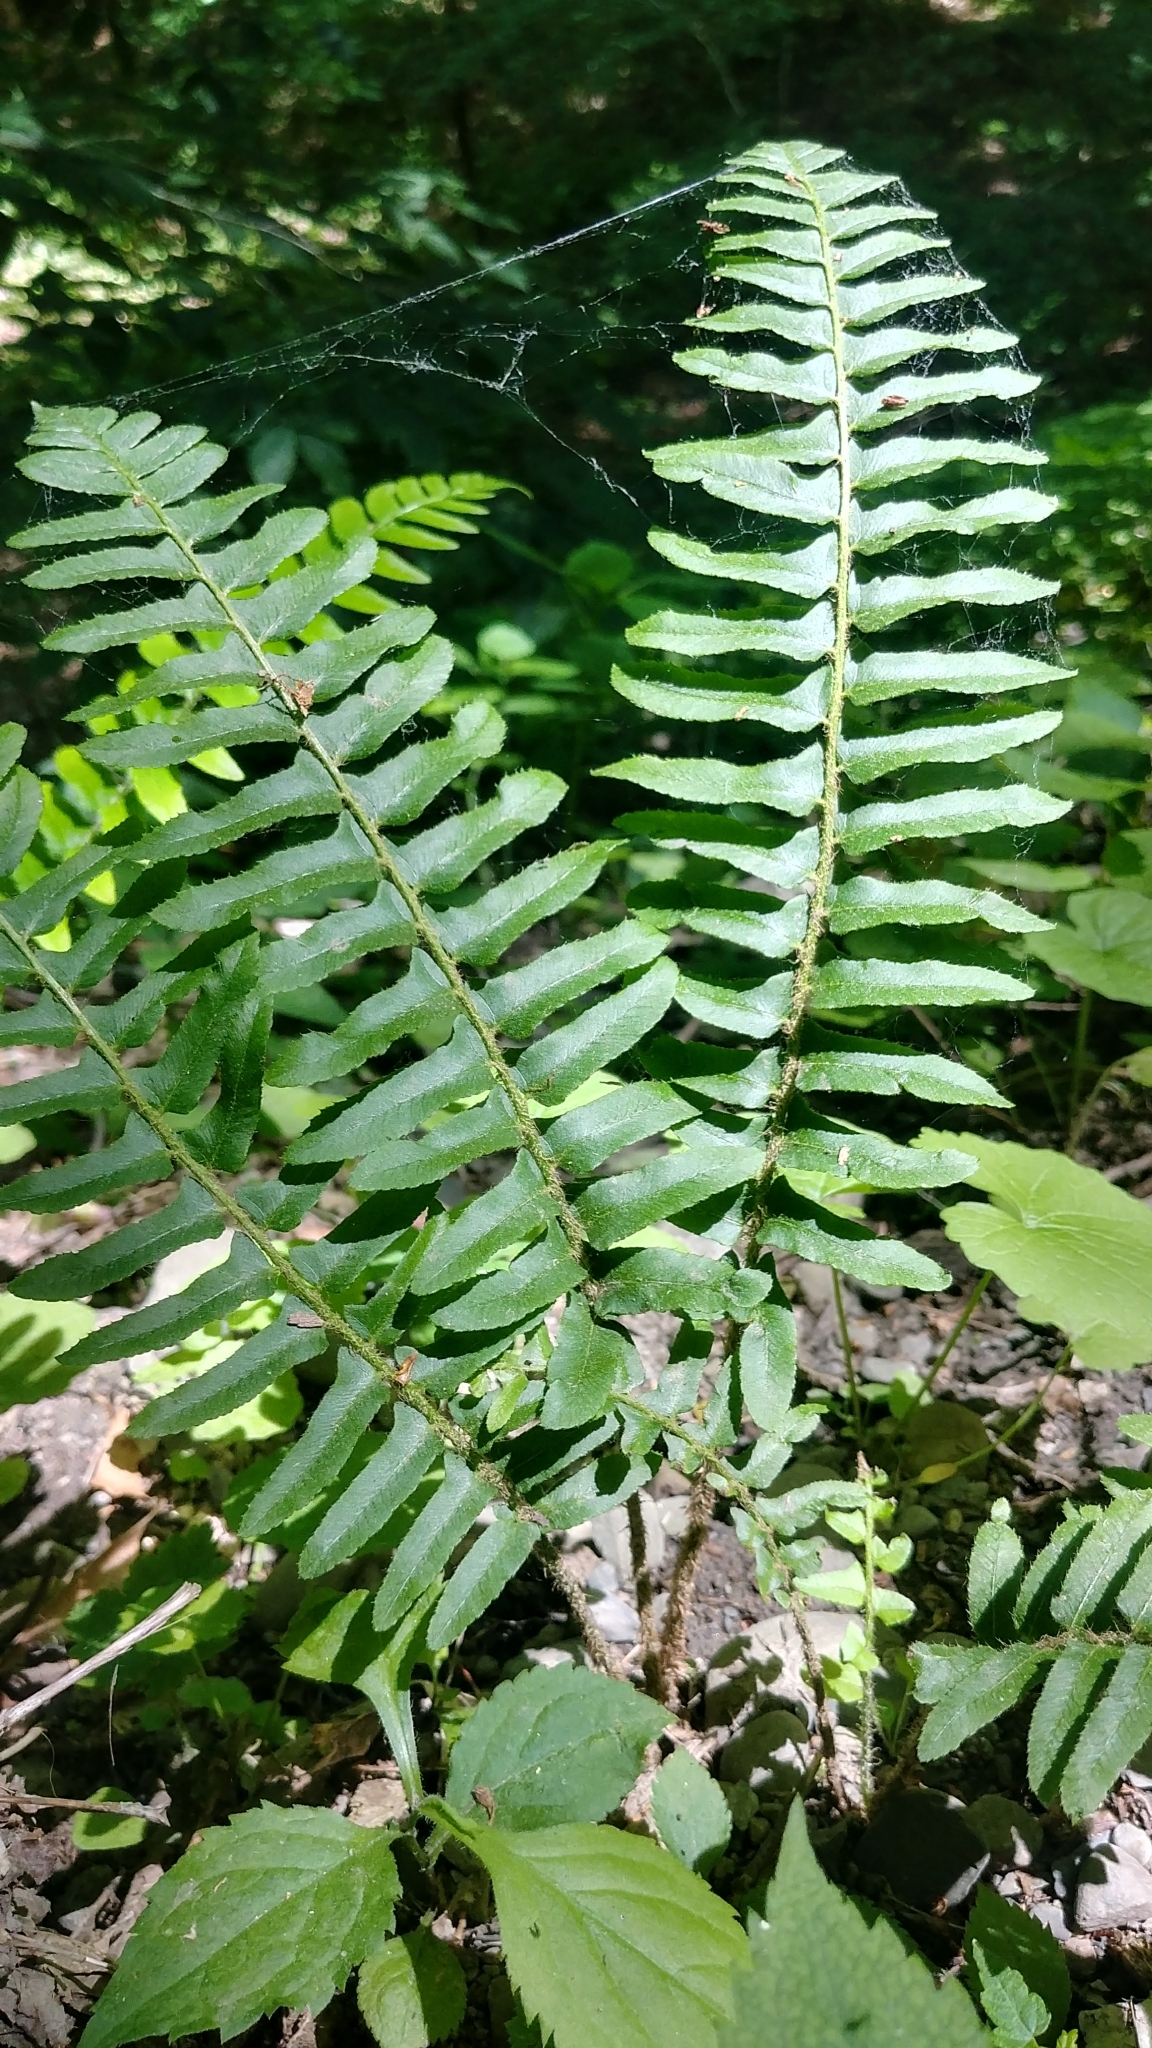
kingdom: Plantae
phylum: Tracheophyta
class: Polypodiopsida
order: Polypodiales
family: Dryopteridaceae
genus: Polystichum
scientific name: Polystichum acrostichoides
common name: Christmas fern
